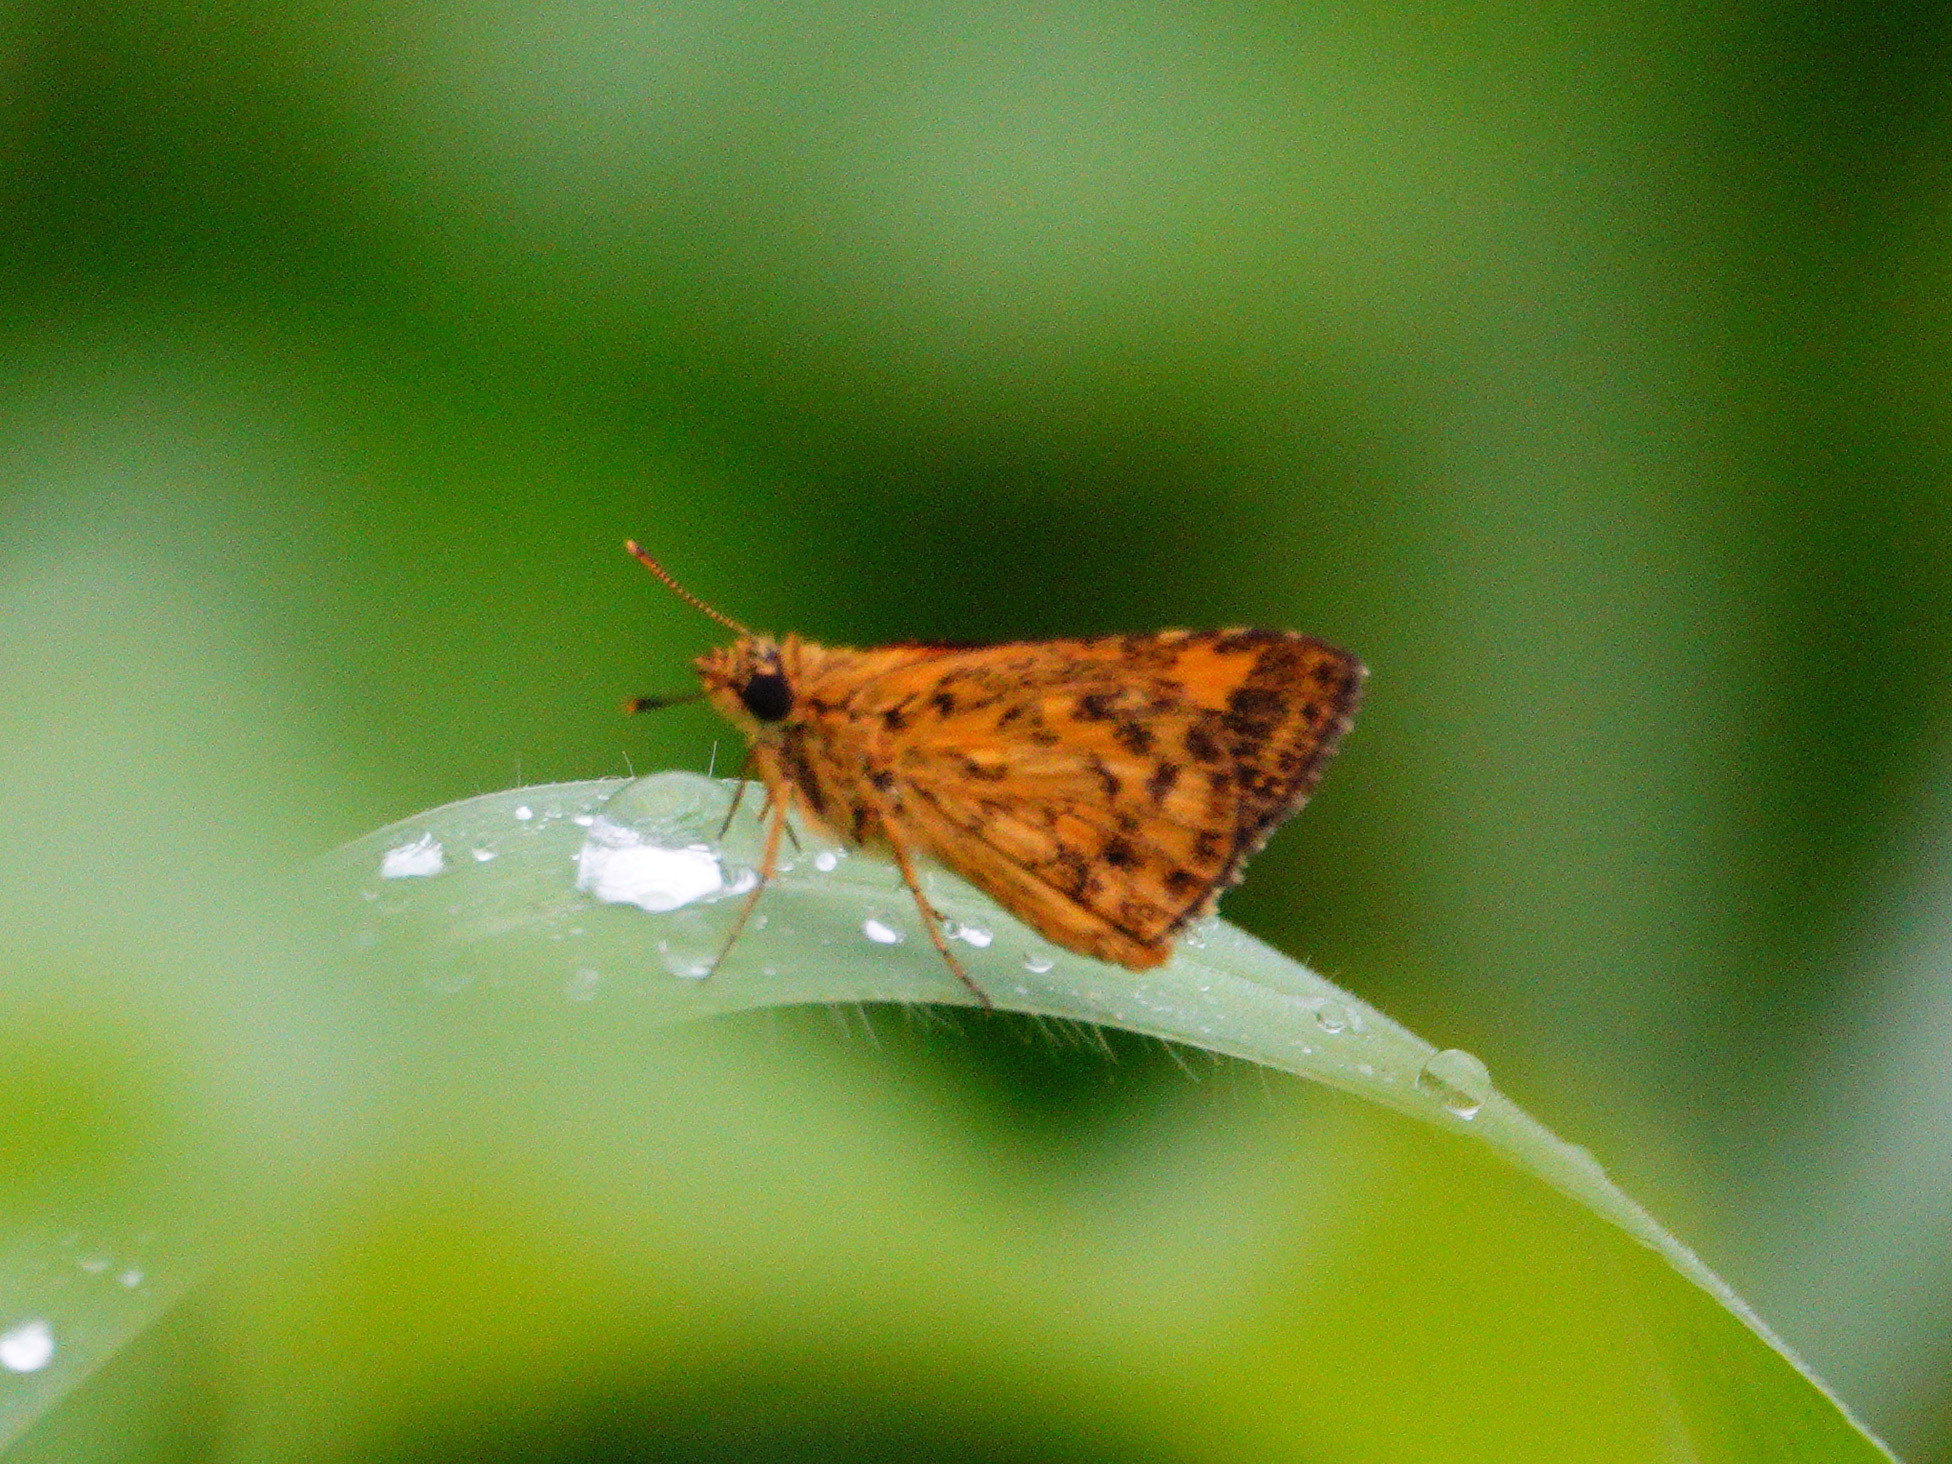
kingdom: Animalia
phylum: Arthropoda
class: Insecta
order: Lepidoptera
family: Hesperiidae
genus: Ampittia
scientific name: Ampittia dioscorides
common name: Common bush hopper
